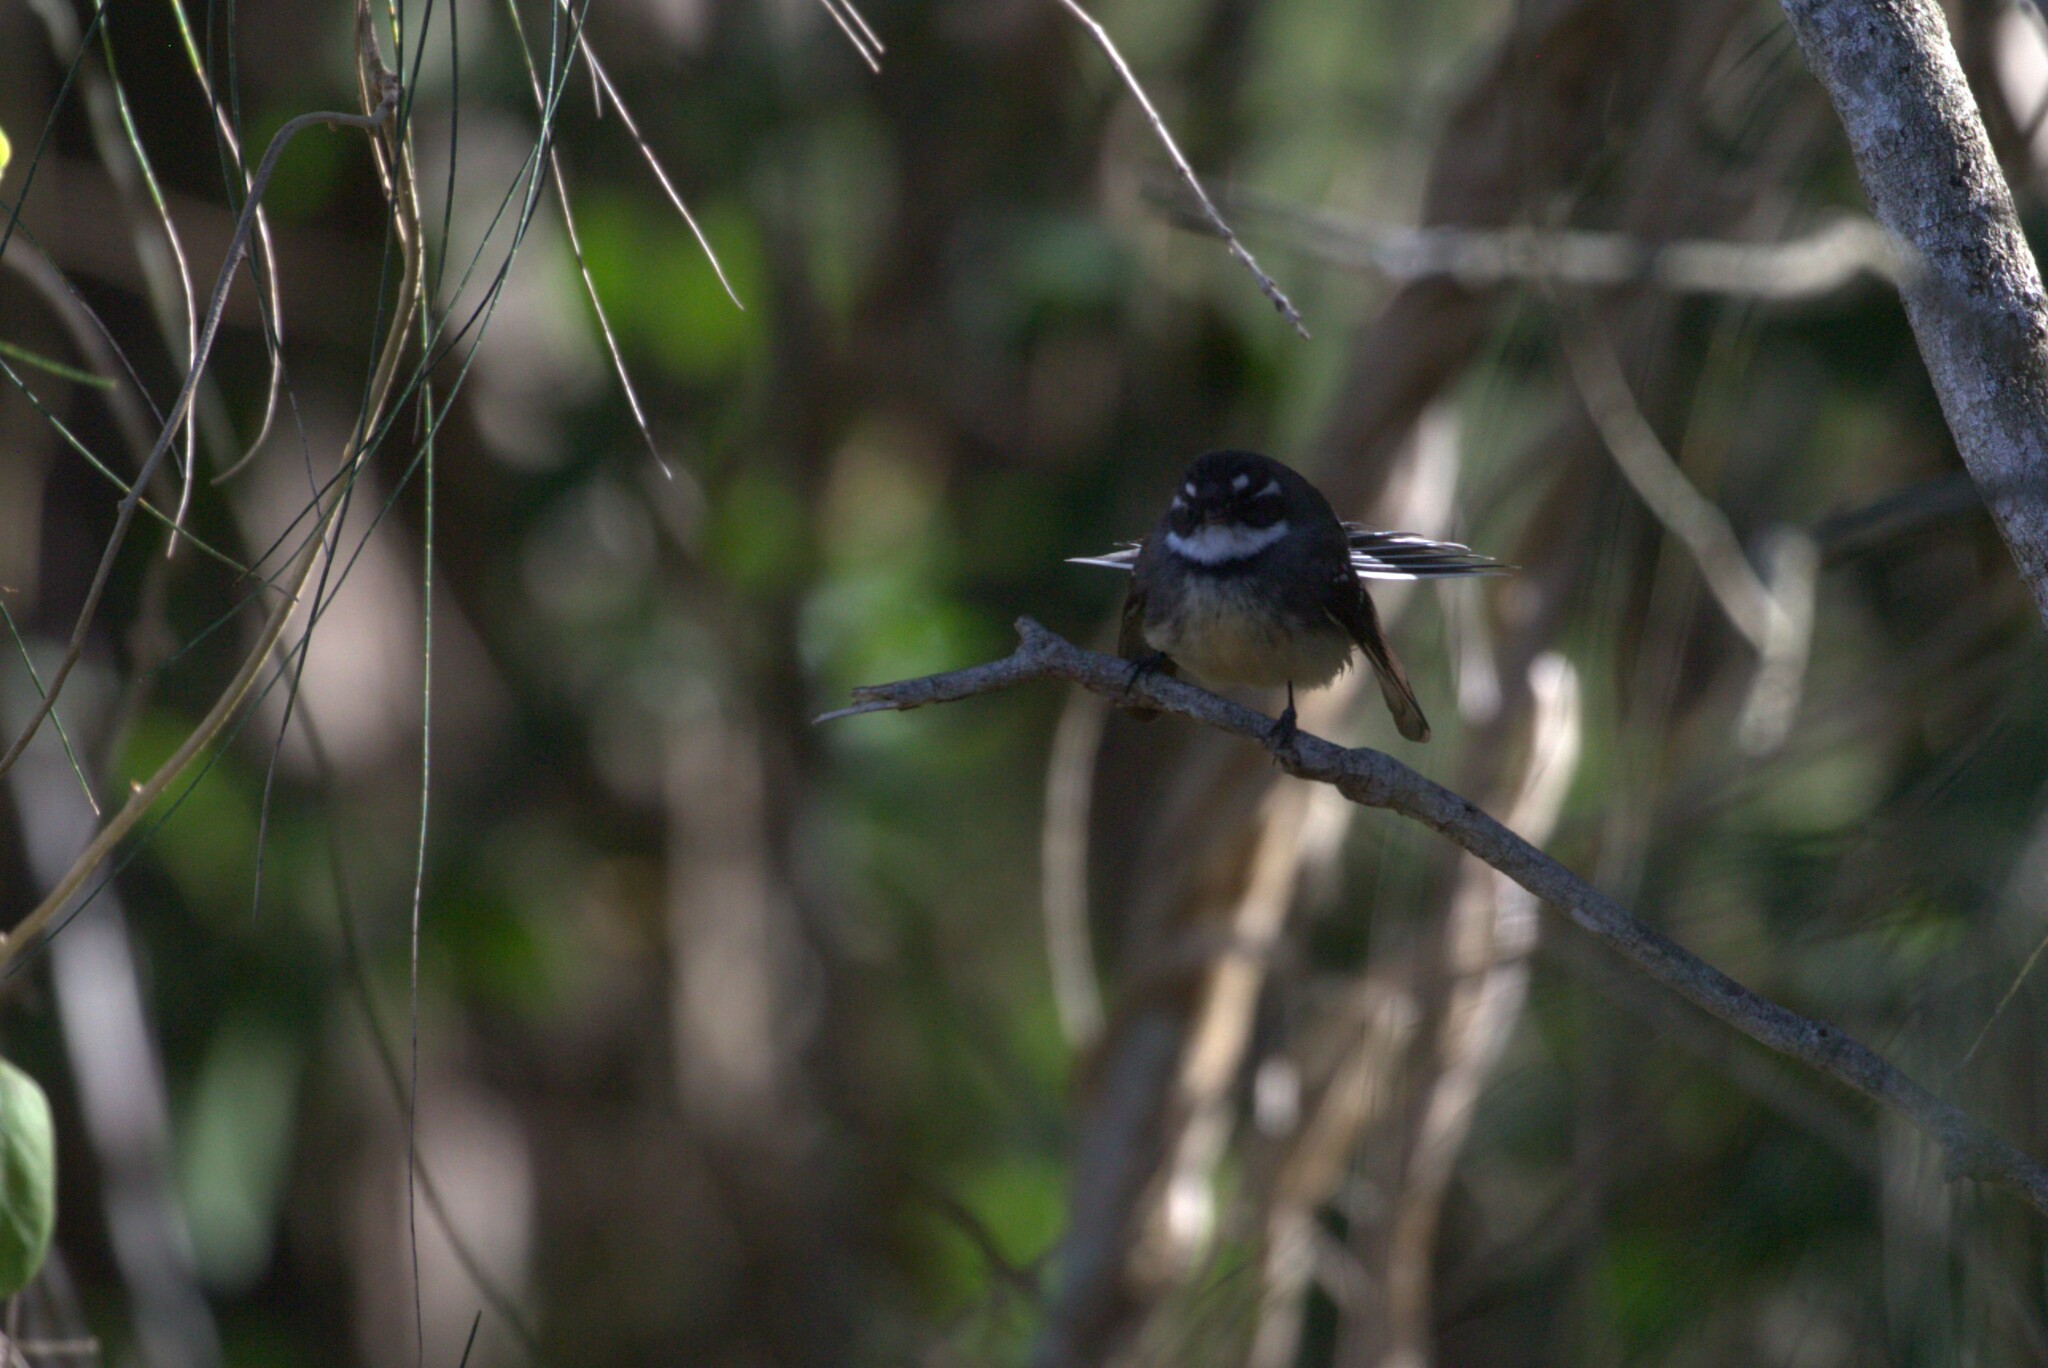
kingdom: Animalia
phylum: Chordata
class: Aves
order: Passeriformes
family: Rhipiduridae
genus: Rhipidura
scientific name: Rhipidura albiscapa
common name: Grey fantail
